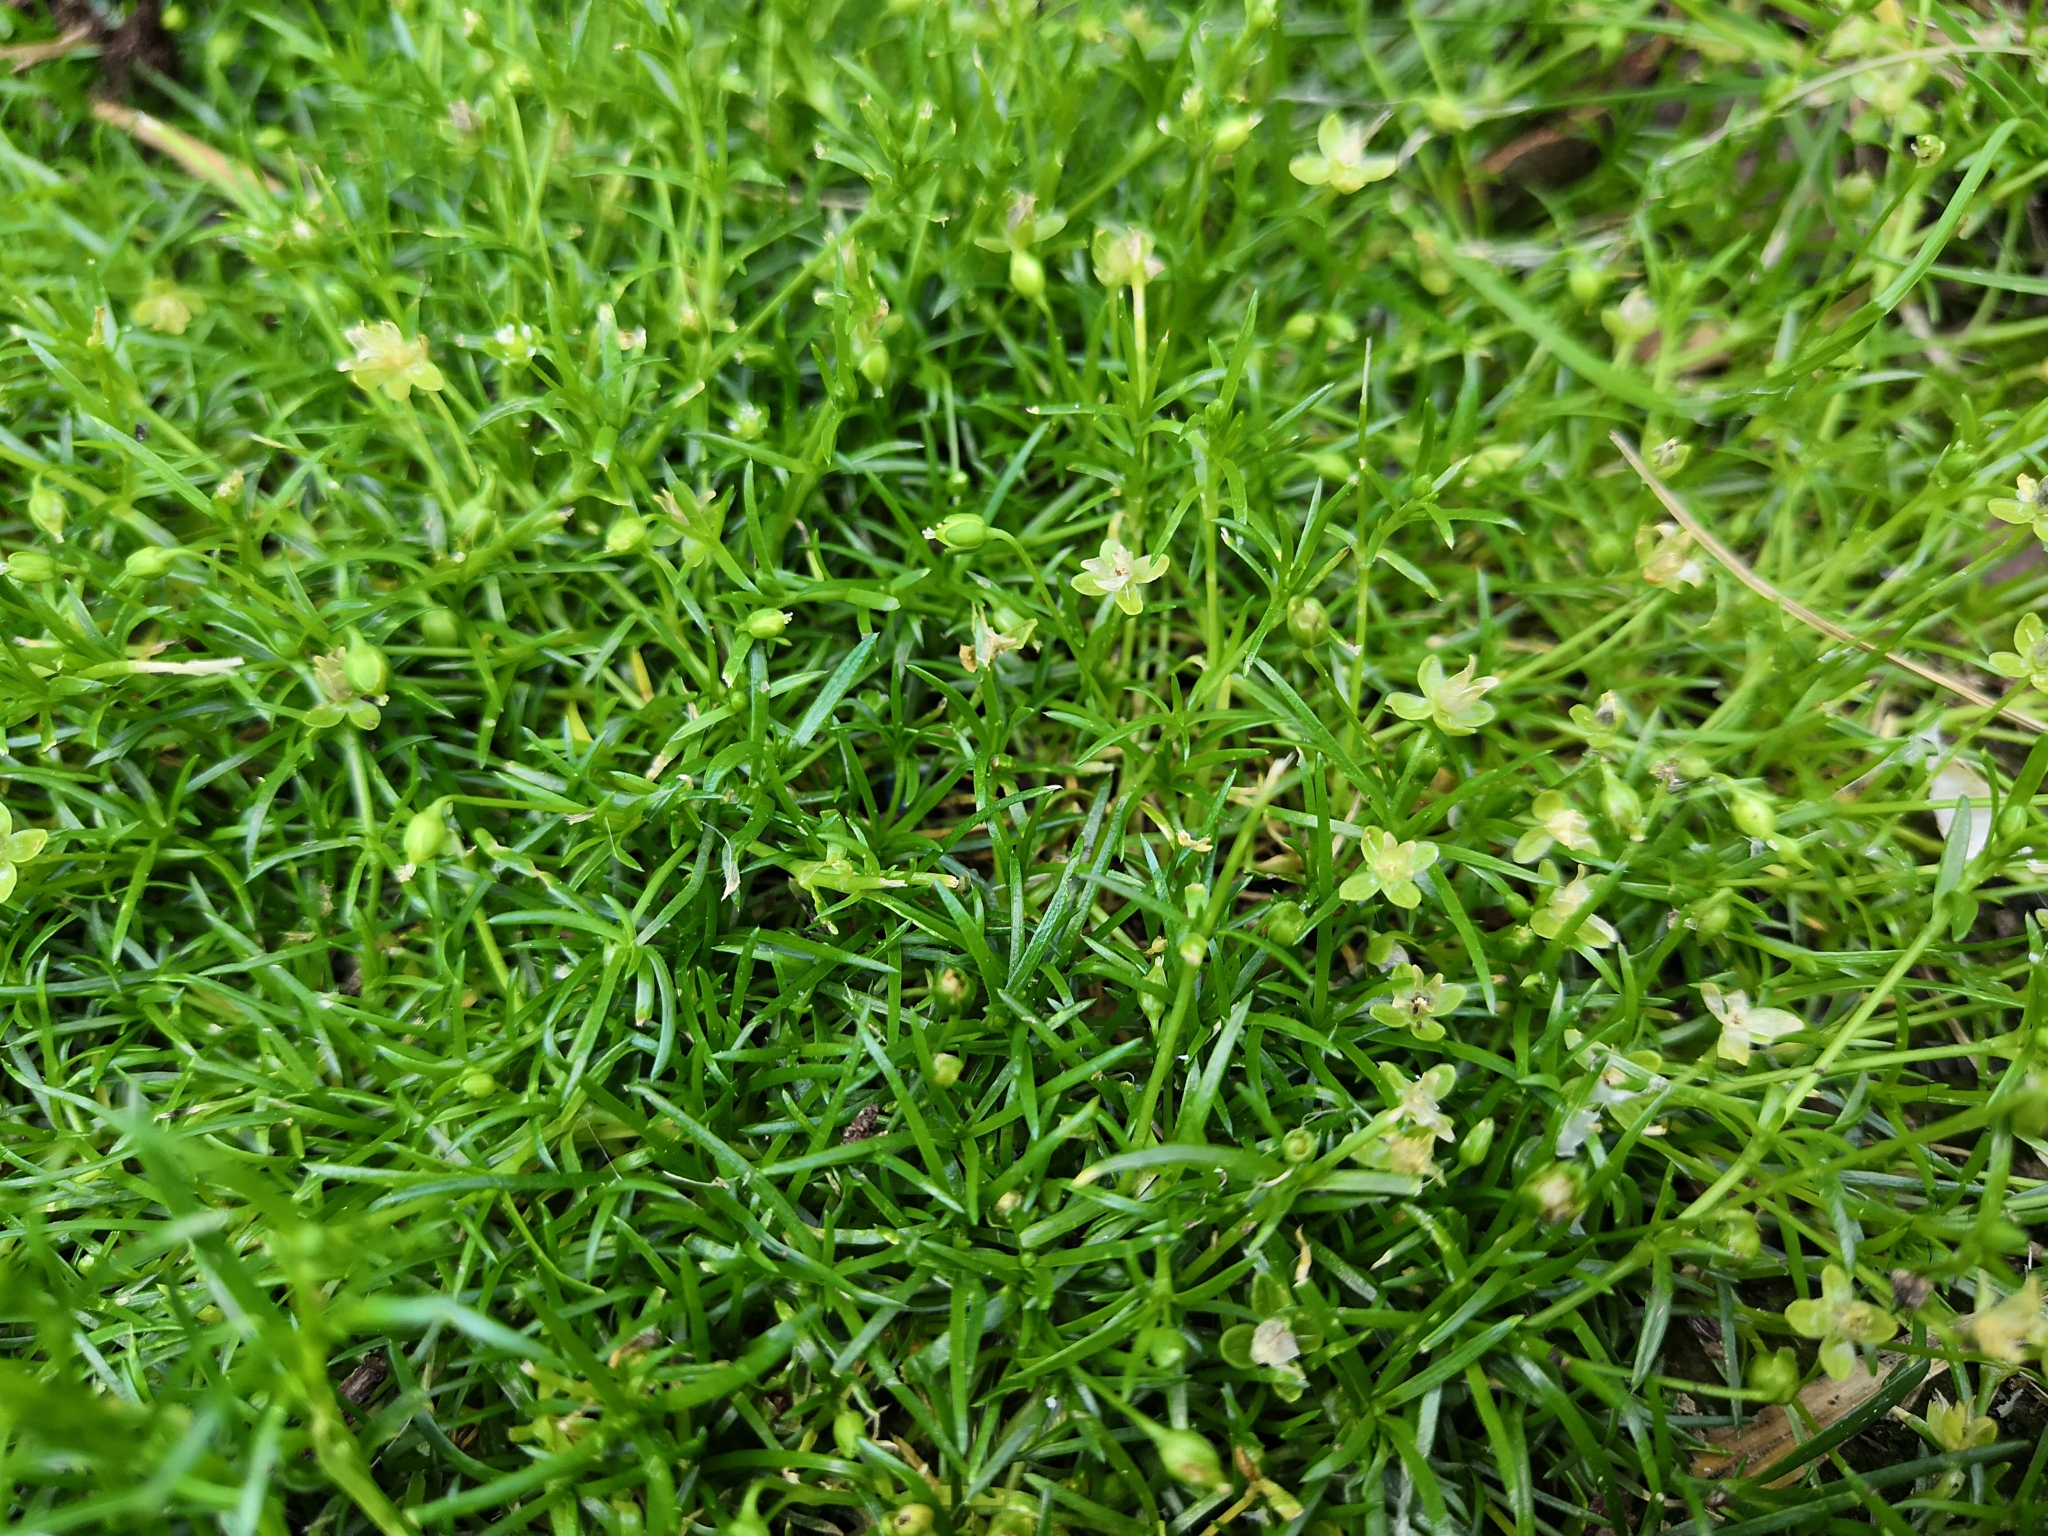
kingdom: Plantae
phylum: Tracheophyta
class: Magnoliopsida
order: Caryophyllales
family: Caryophyllaceae
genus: Sagina
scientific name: Sagina procumbens
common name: Procumbent pearlwort
